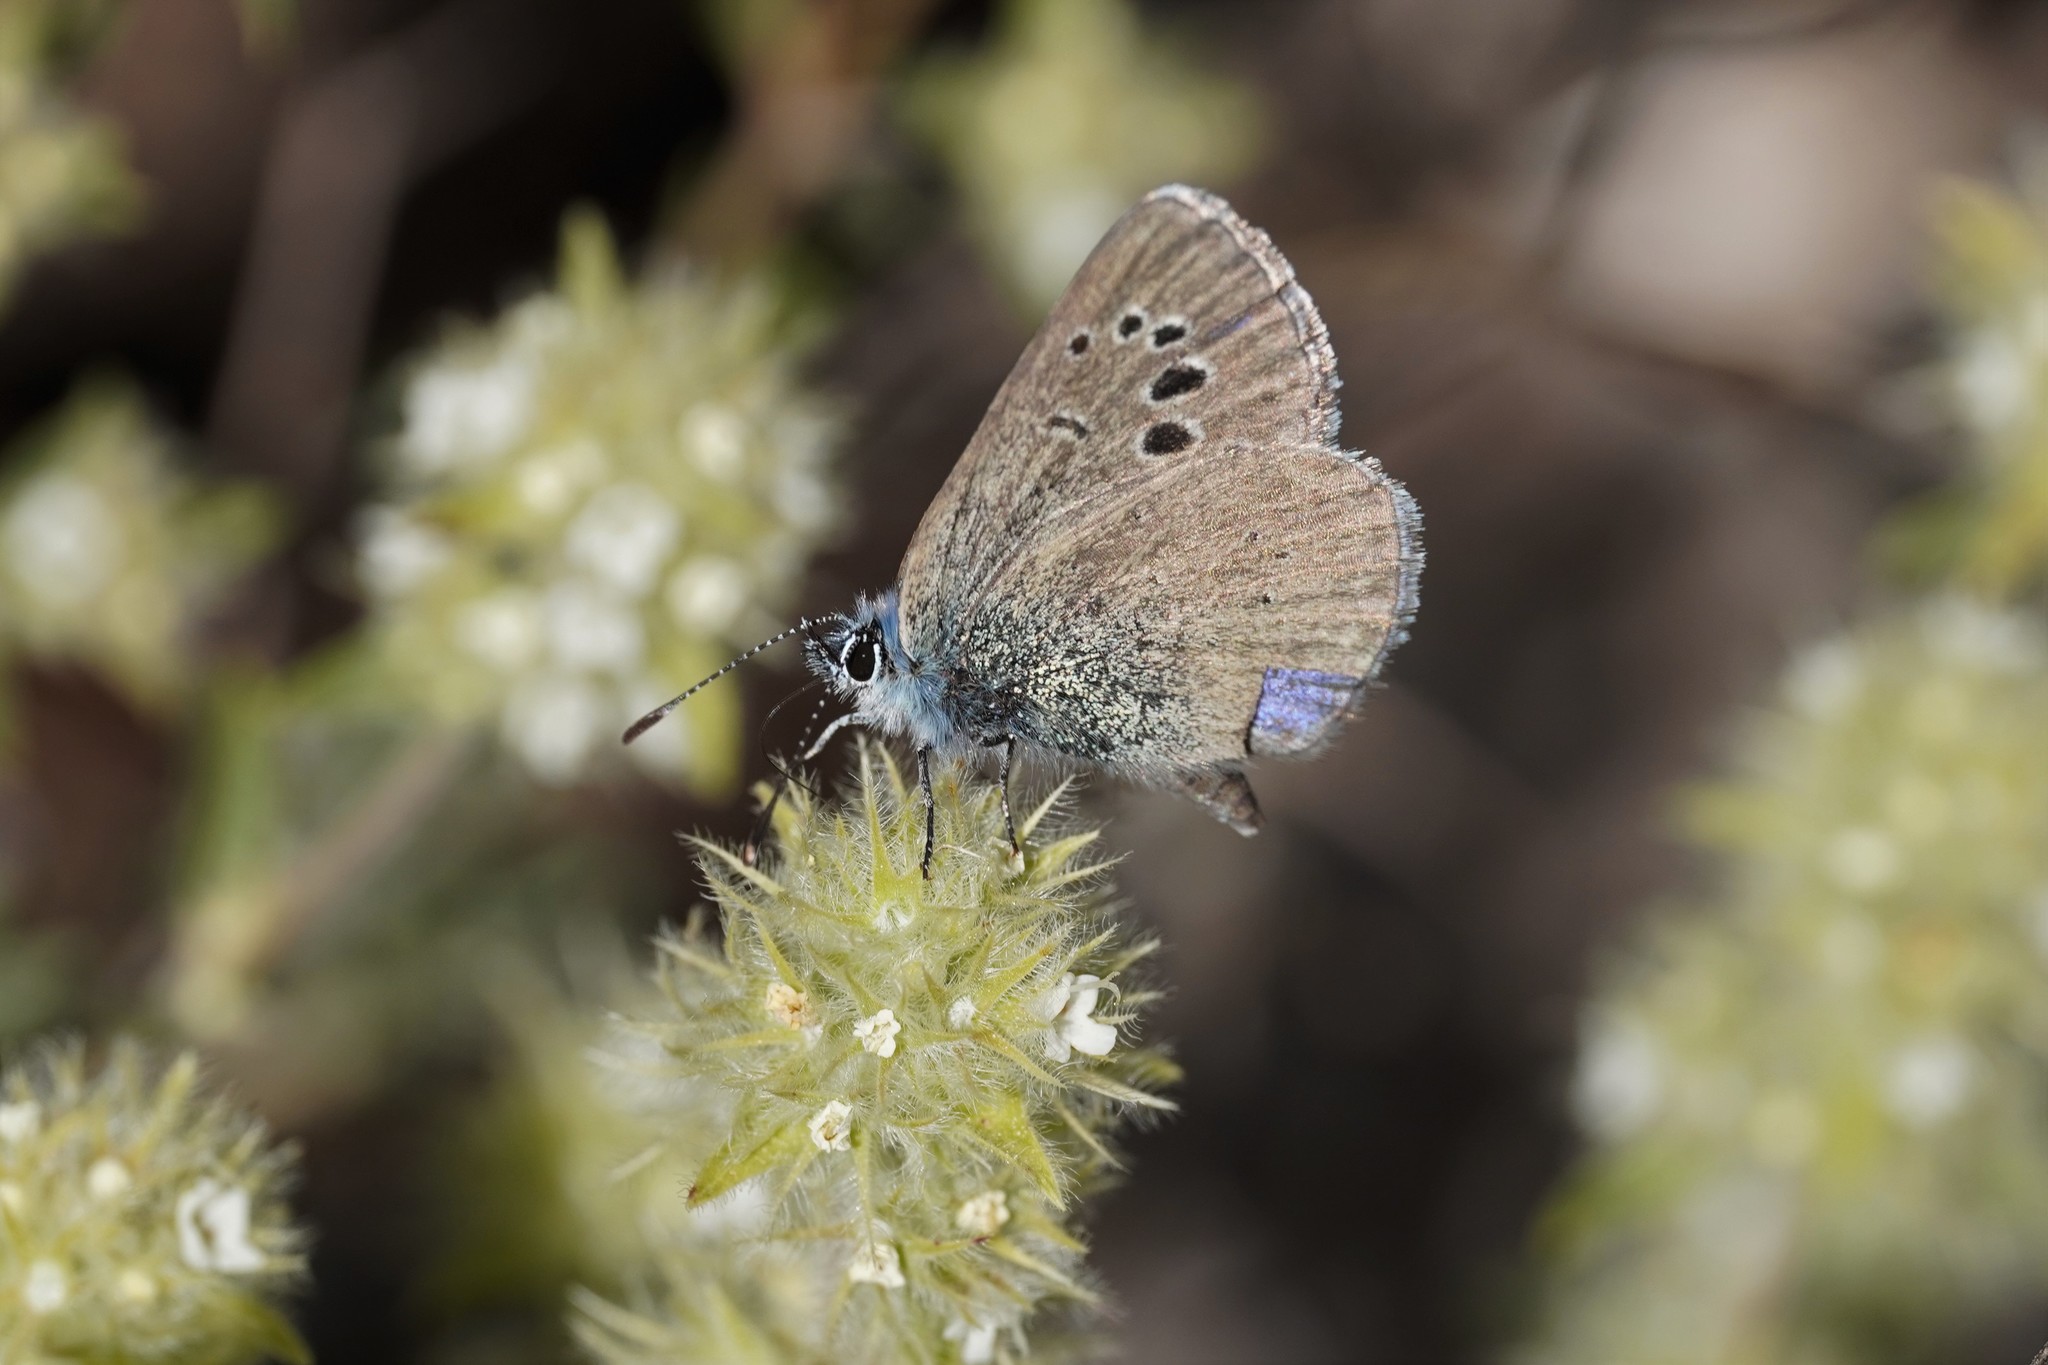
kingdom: Animalia
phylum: Arthropoda
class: Insecta
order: Lepidoptera
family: Lycaenidae
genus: Glaucopsyche
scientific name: Glaucopsyche melanops
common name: Black-eyed blue
